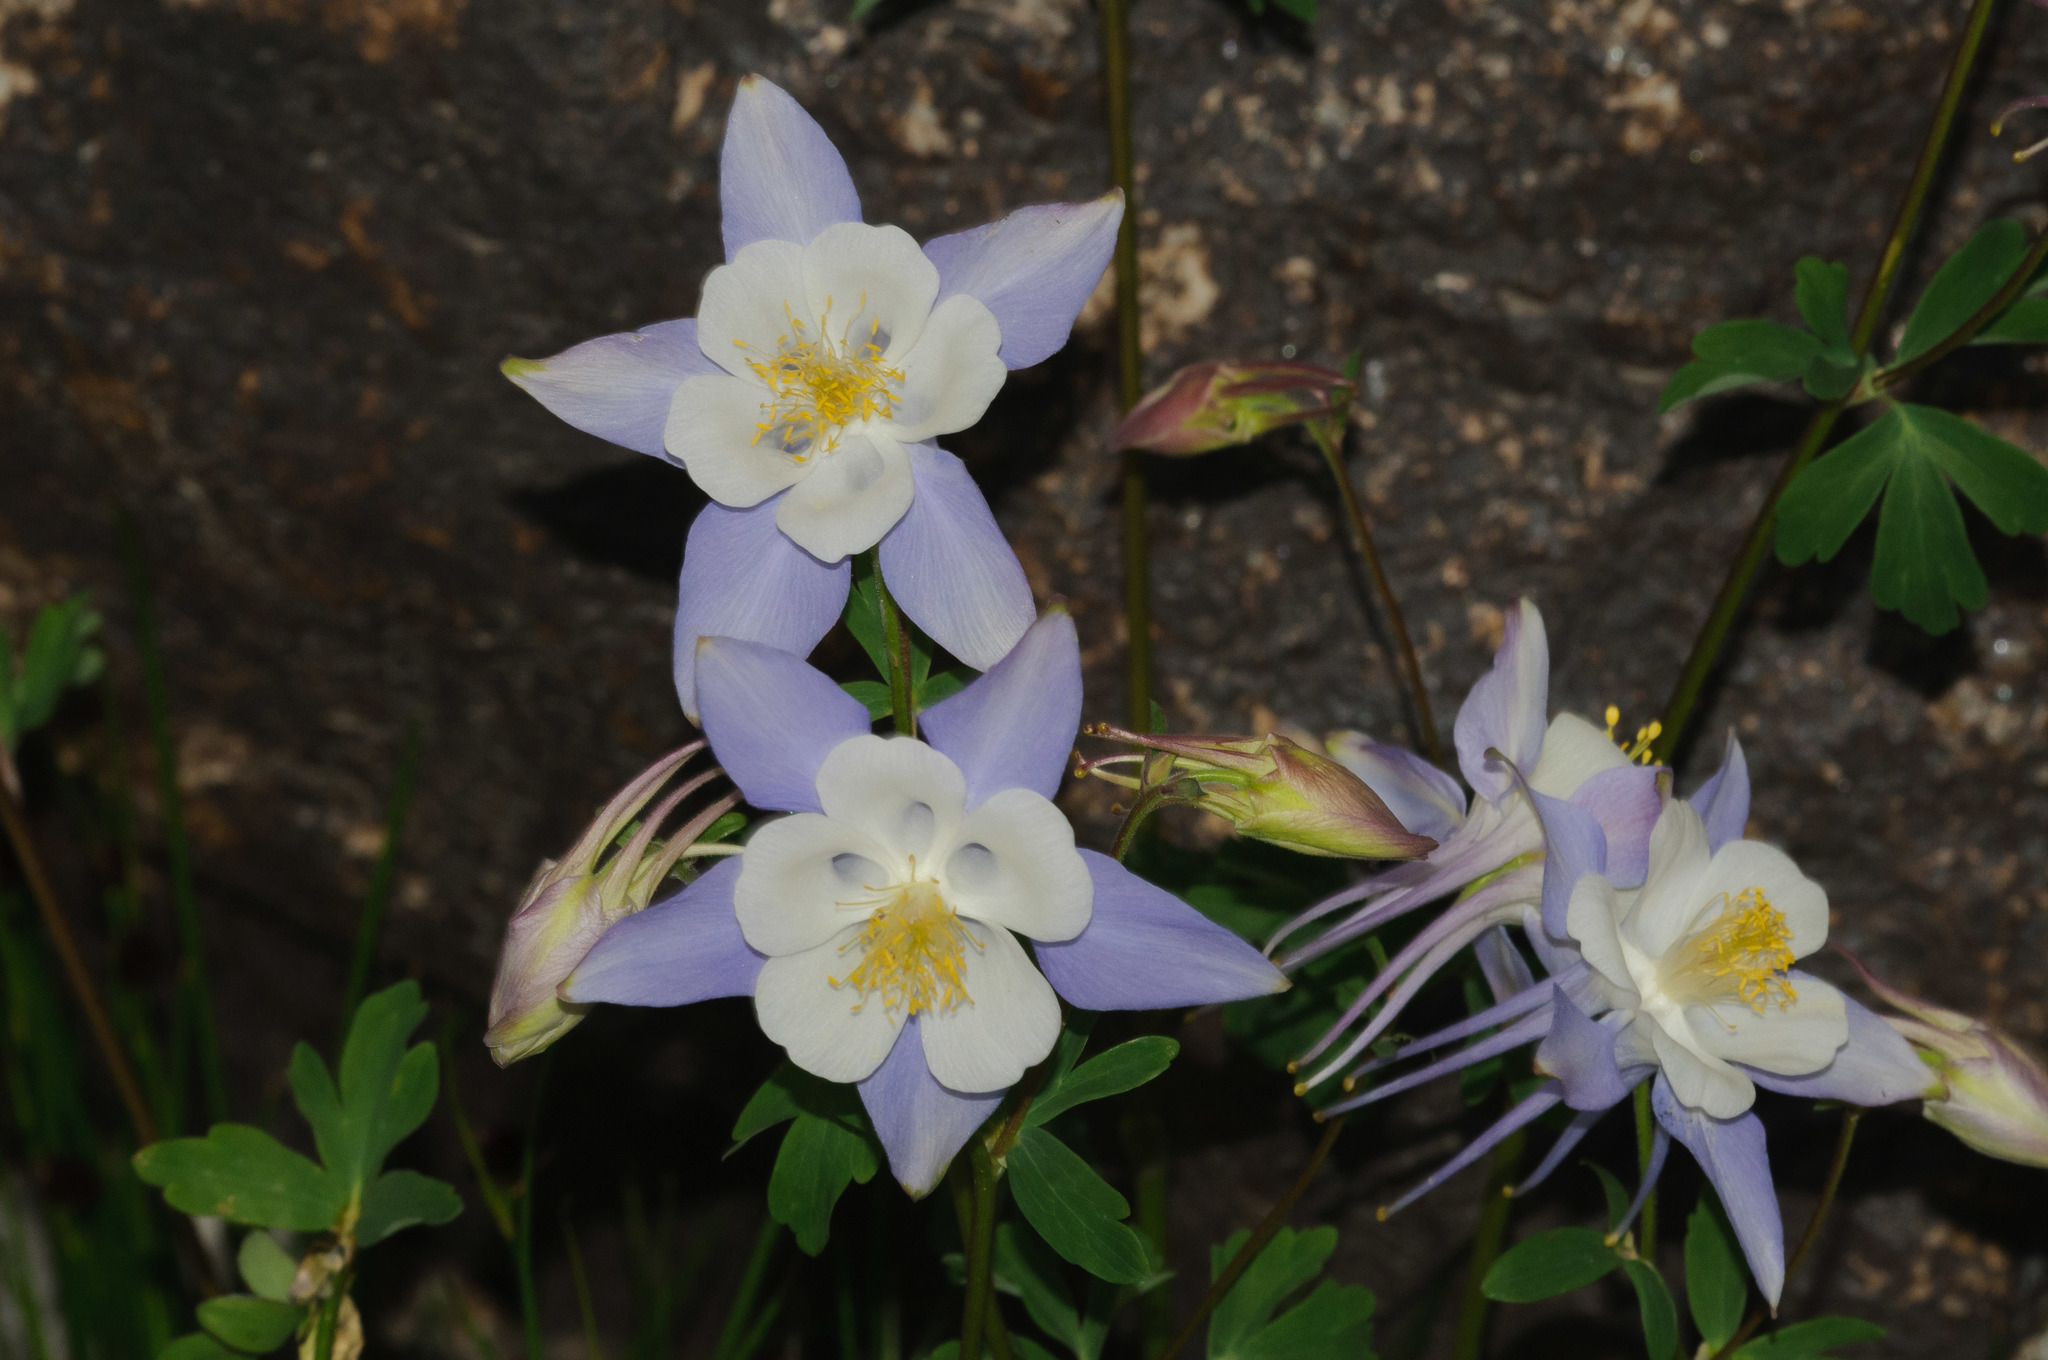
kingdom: Plantae
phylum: Tracheophyta
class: Magnoliopsida
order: Ranunculales
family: Ranunculaceae
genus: Aquilegia
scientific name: Aquilegia coerulea
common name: Rocky mountain columbine
